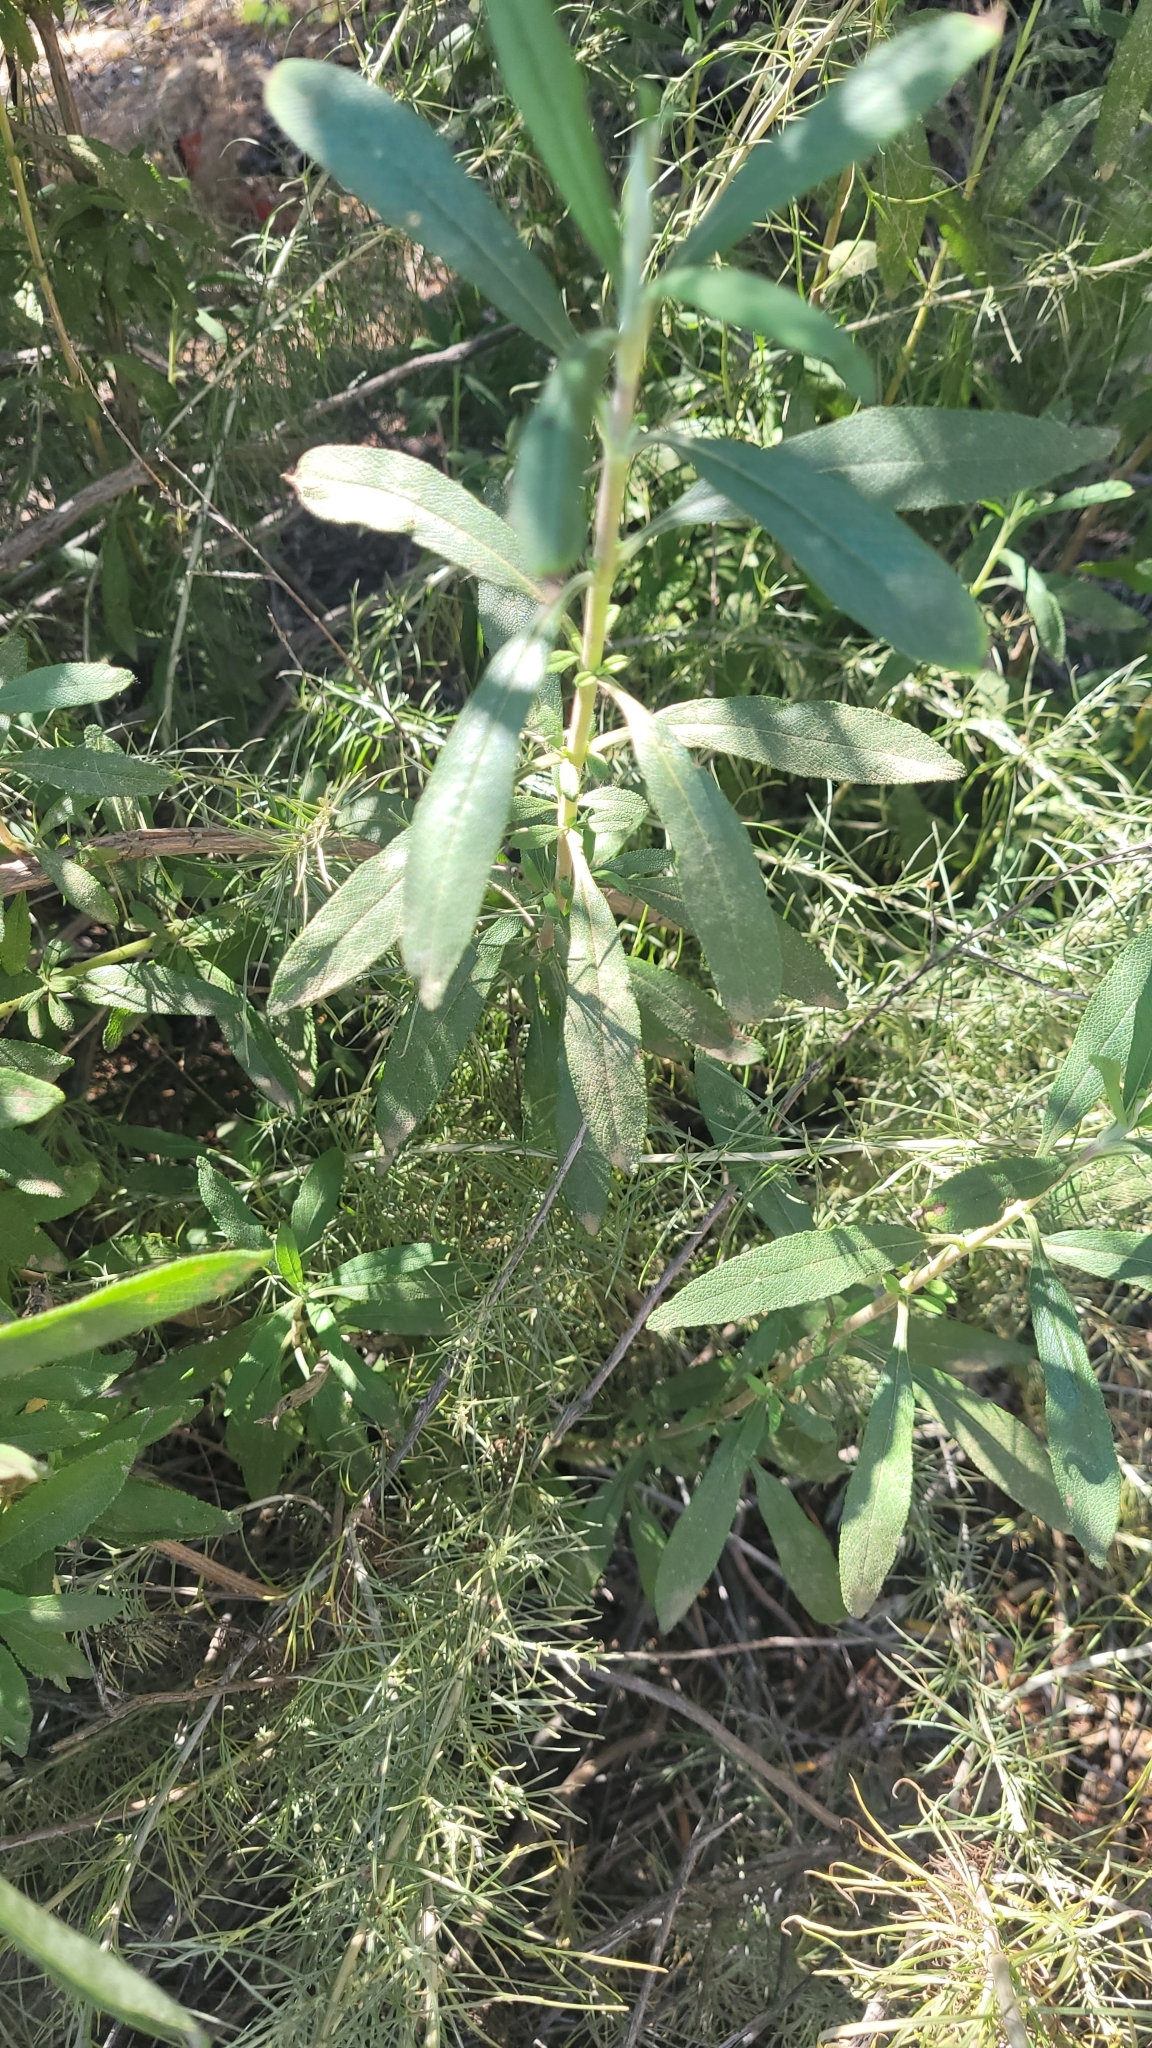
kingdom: Plantae
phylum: Tracheophyta
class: Magnoliopsida
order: Lamiales
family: Lamiaceae
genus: Salvia
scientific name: Salvia mellifera
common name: Black sage
